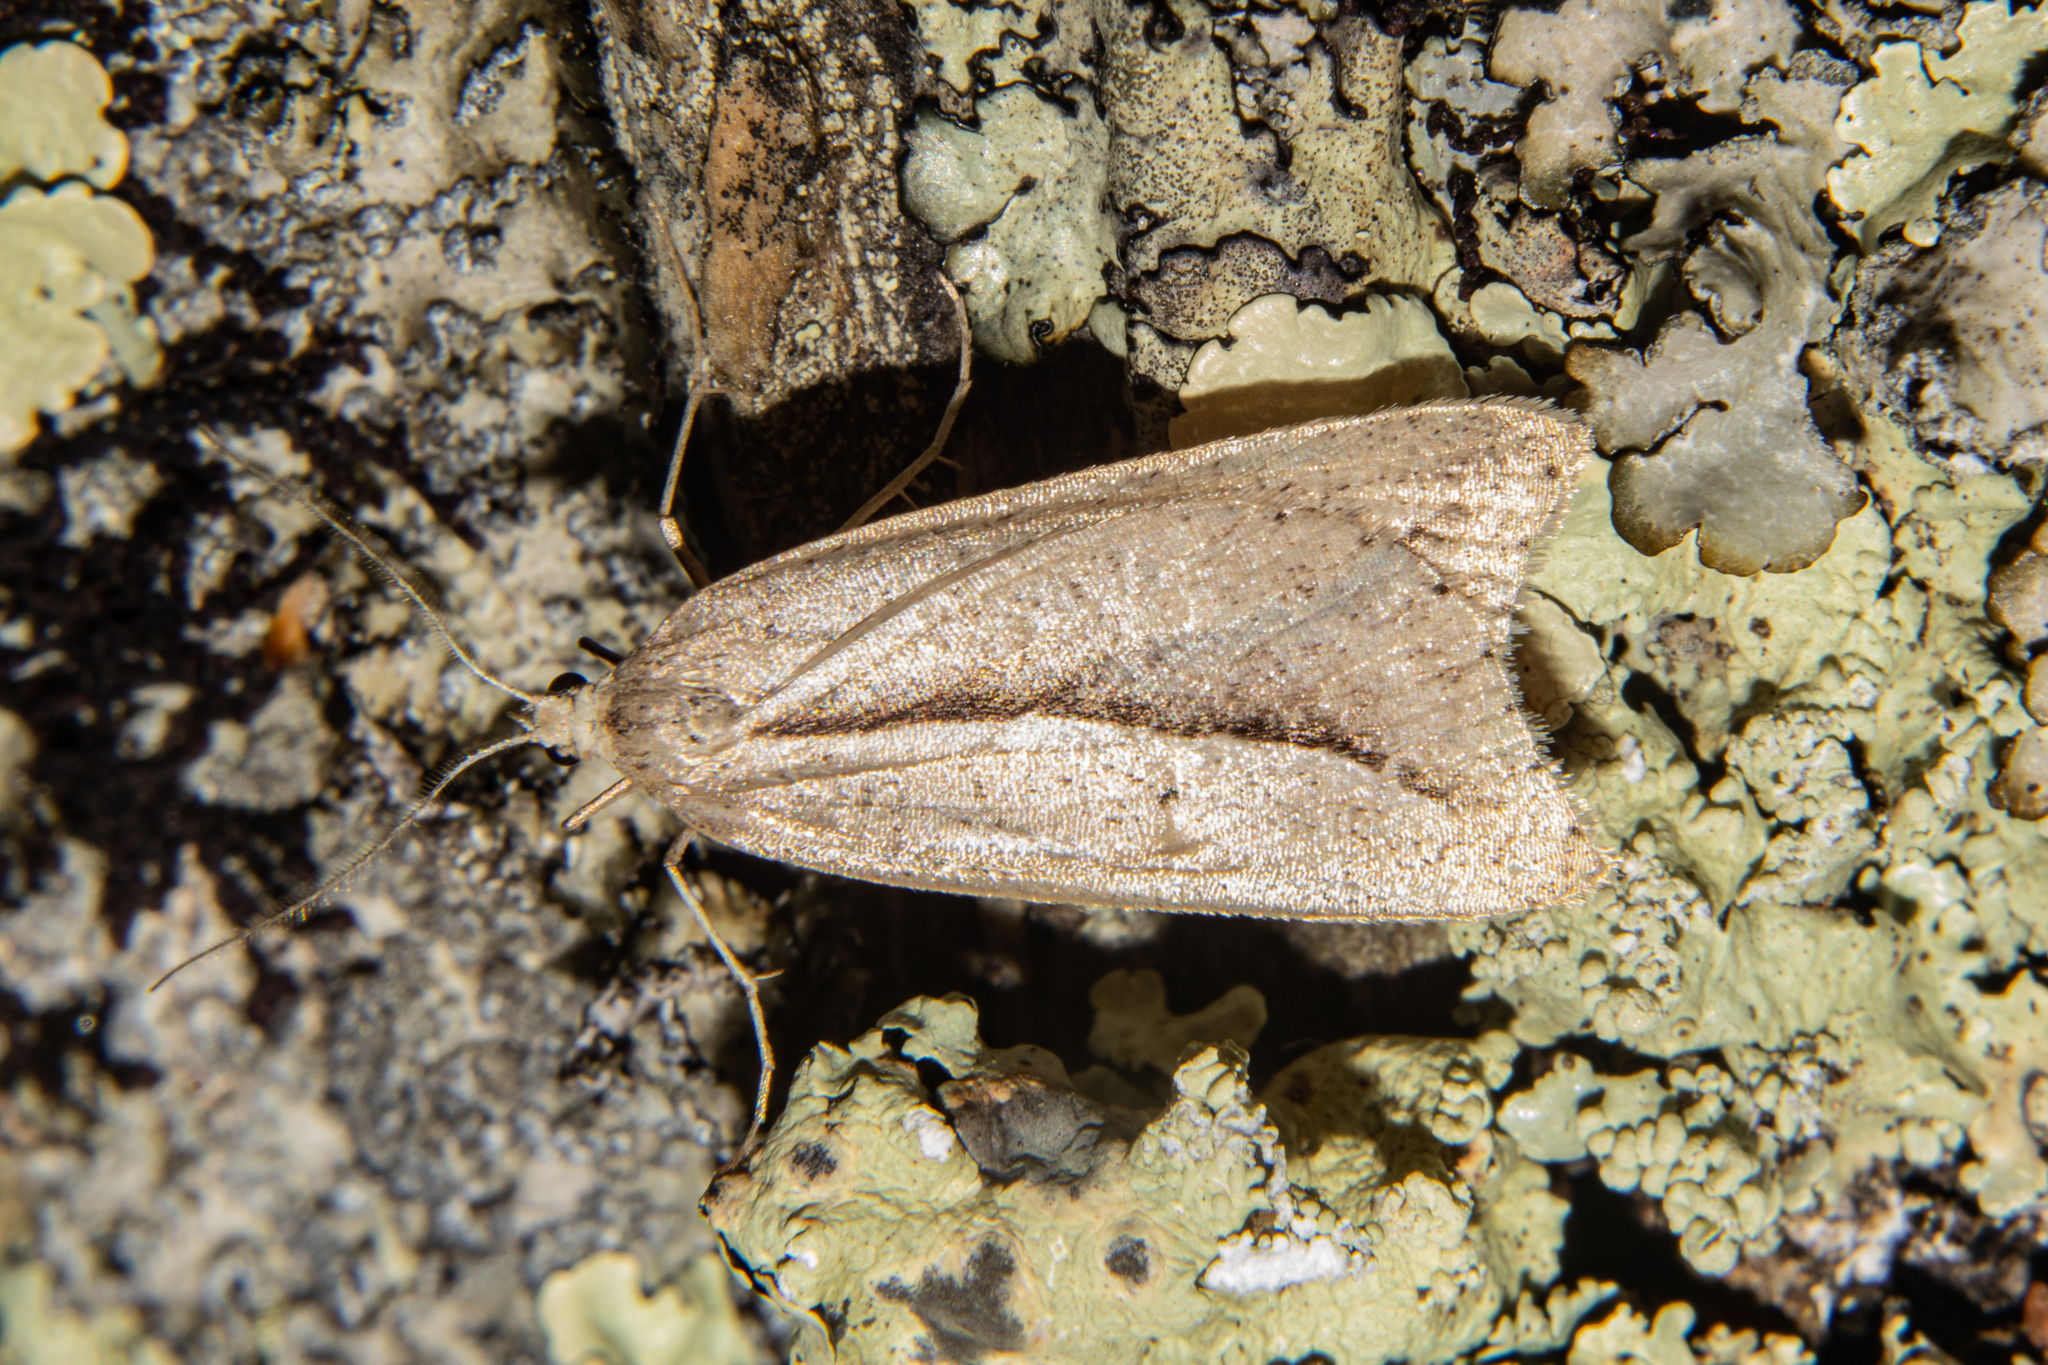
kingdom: Animalia
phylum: Arthropoda
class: Insecta
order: Lepidoptera
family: Geometridae
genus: Theoxena
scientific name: Theoxena scissaria
